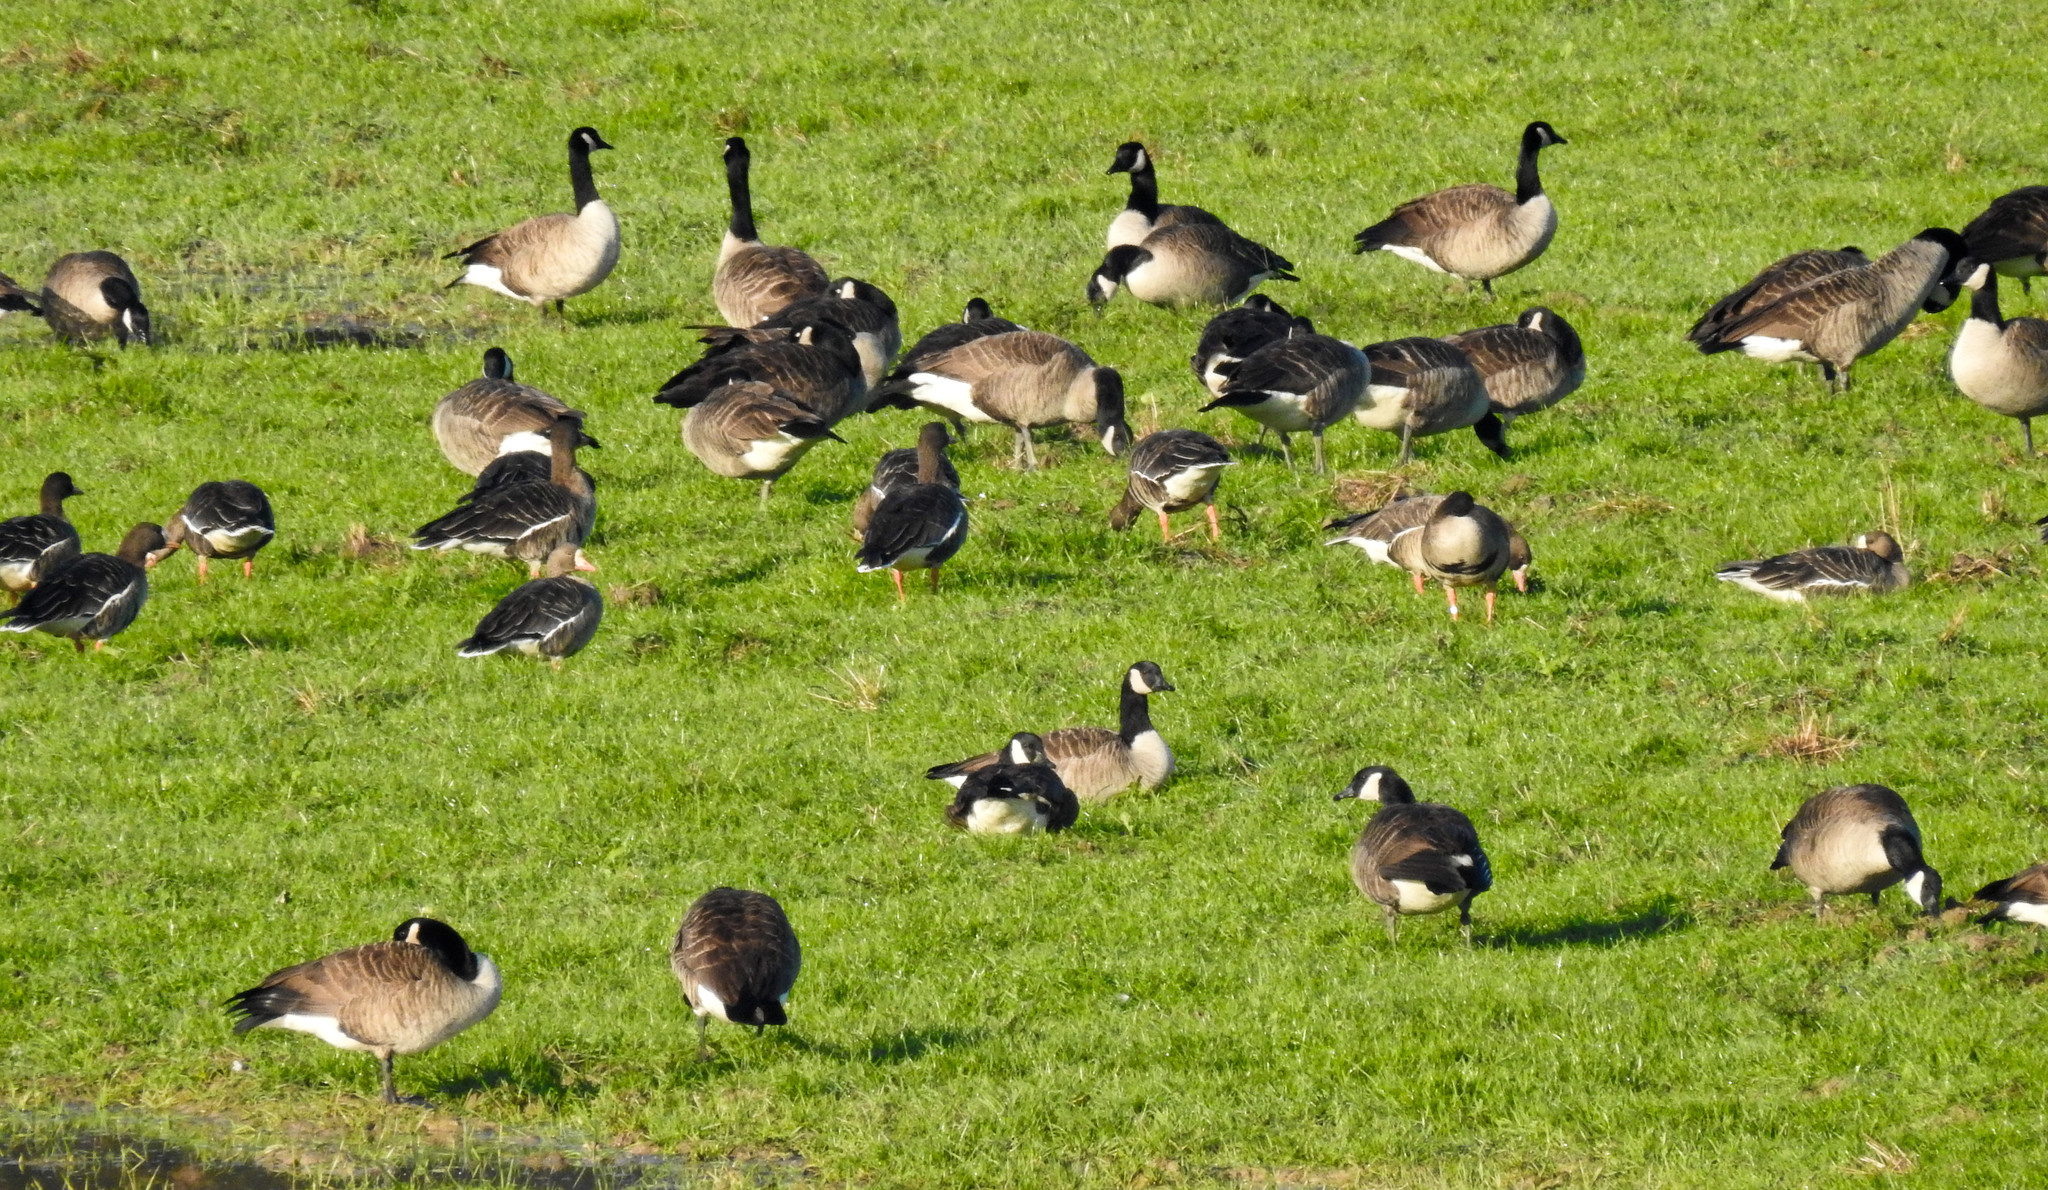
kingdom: Animalia
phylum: Chordata
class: Aves
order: Anseriformes
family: Anatidae
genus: Branta
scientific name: Branta canadensis
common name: Canada goose
